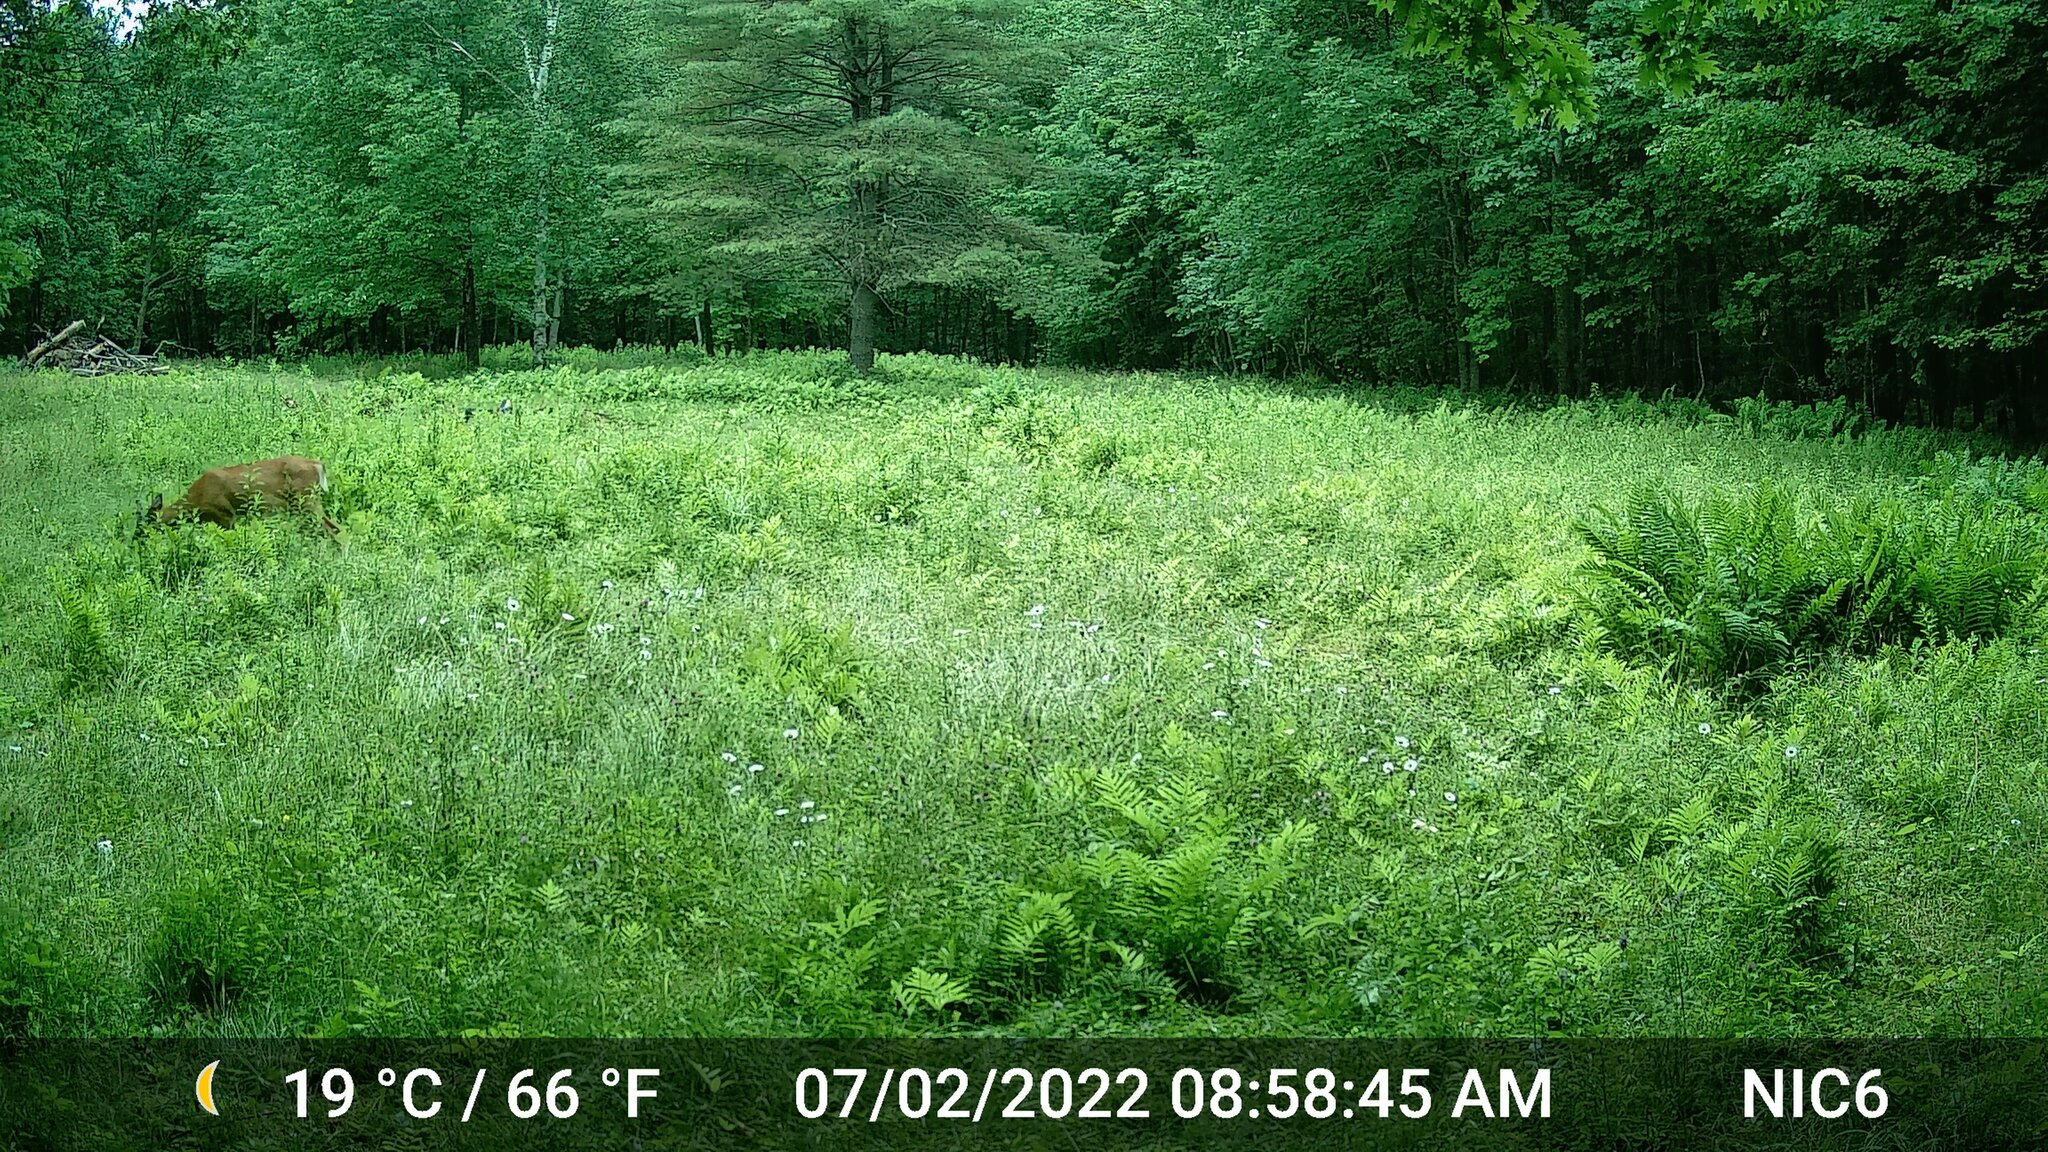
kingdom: Animalia
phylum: Chordata
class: Mammalia
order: Artiodactyla
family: Cervidae
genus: Odocoileus
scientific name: Odocoileus virginianus
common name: White-tailed deer
